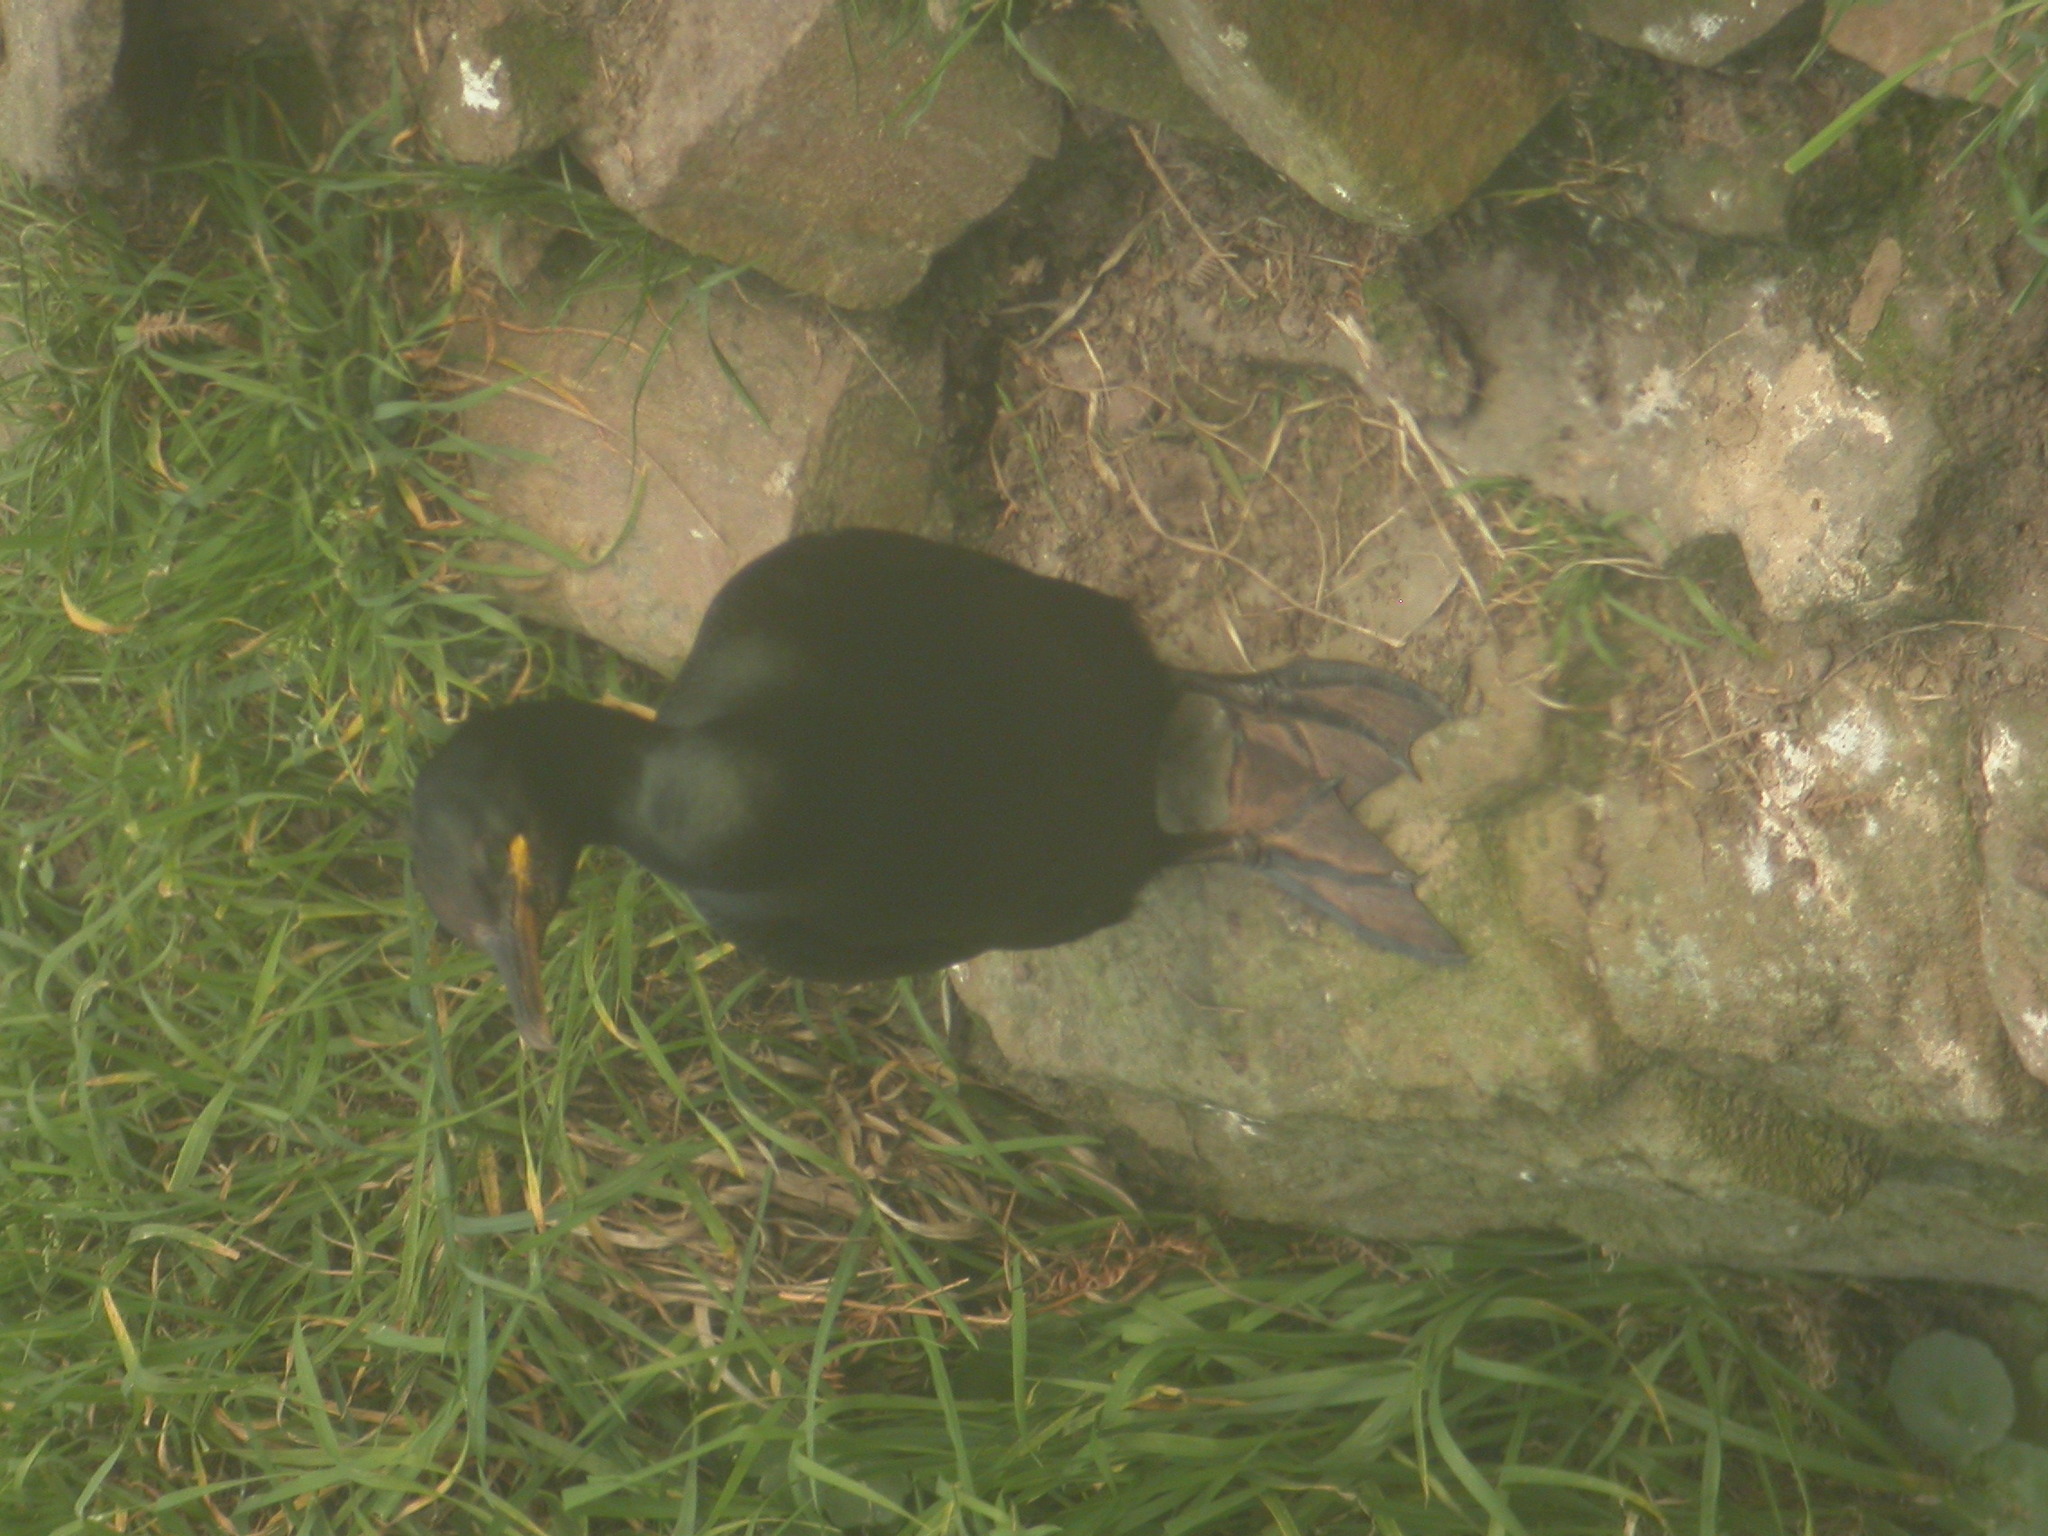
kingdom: Animalia
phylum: Chordata
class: Aves
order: Suliformes
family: Phalacrocoracidae
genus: Phalacrocorax
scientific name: Phalacrocorax aristotelis
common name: European shag
